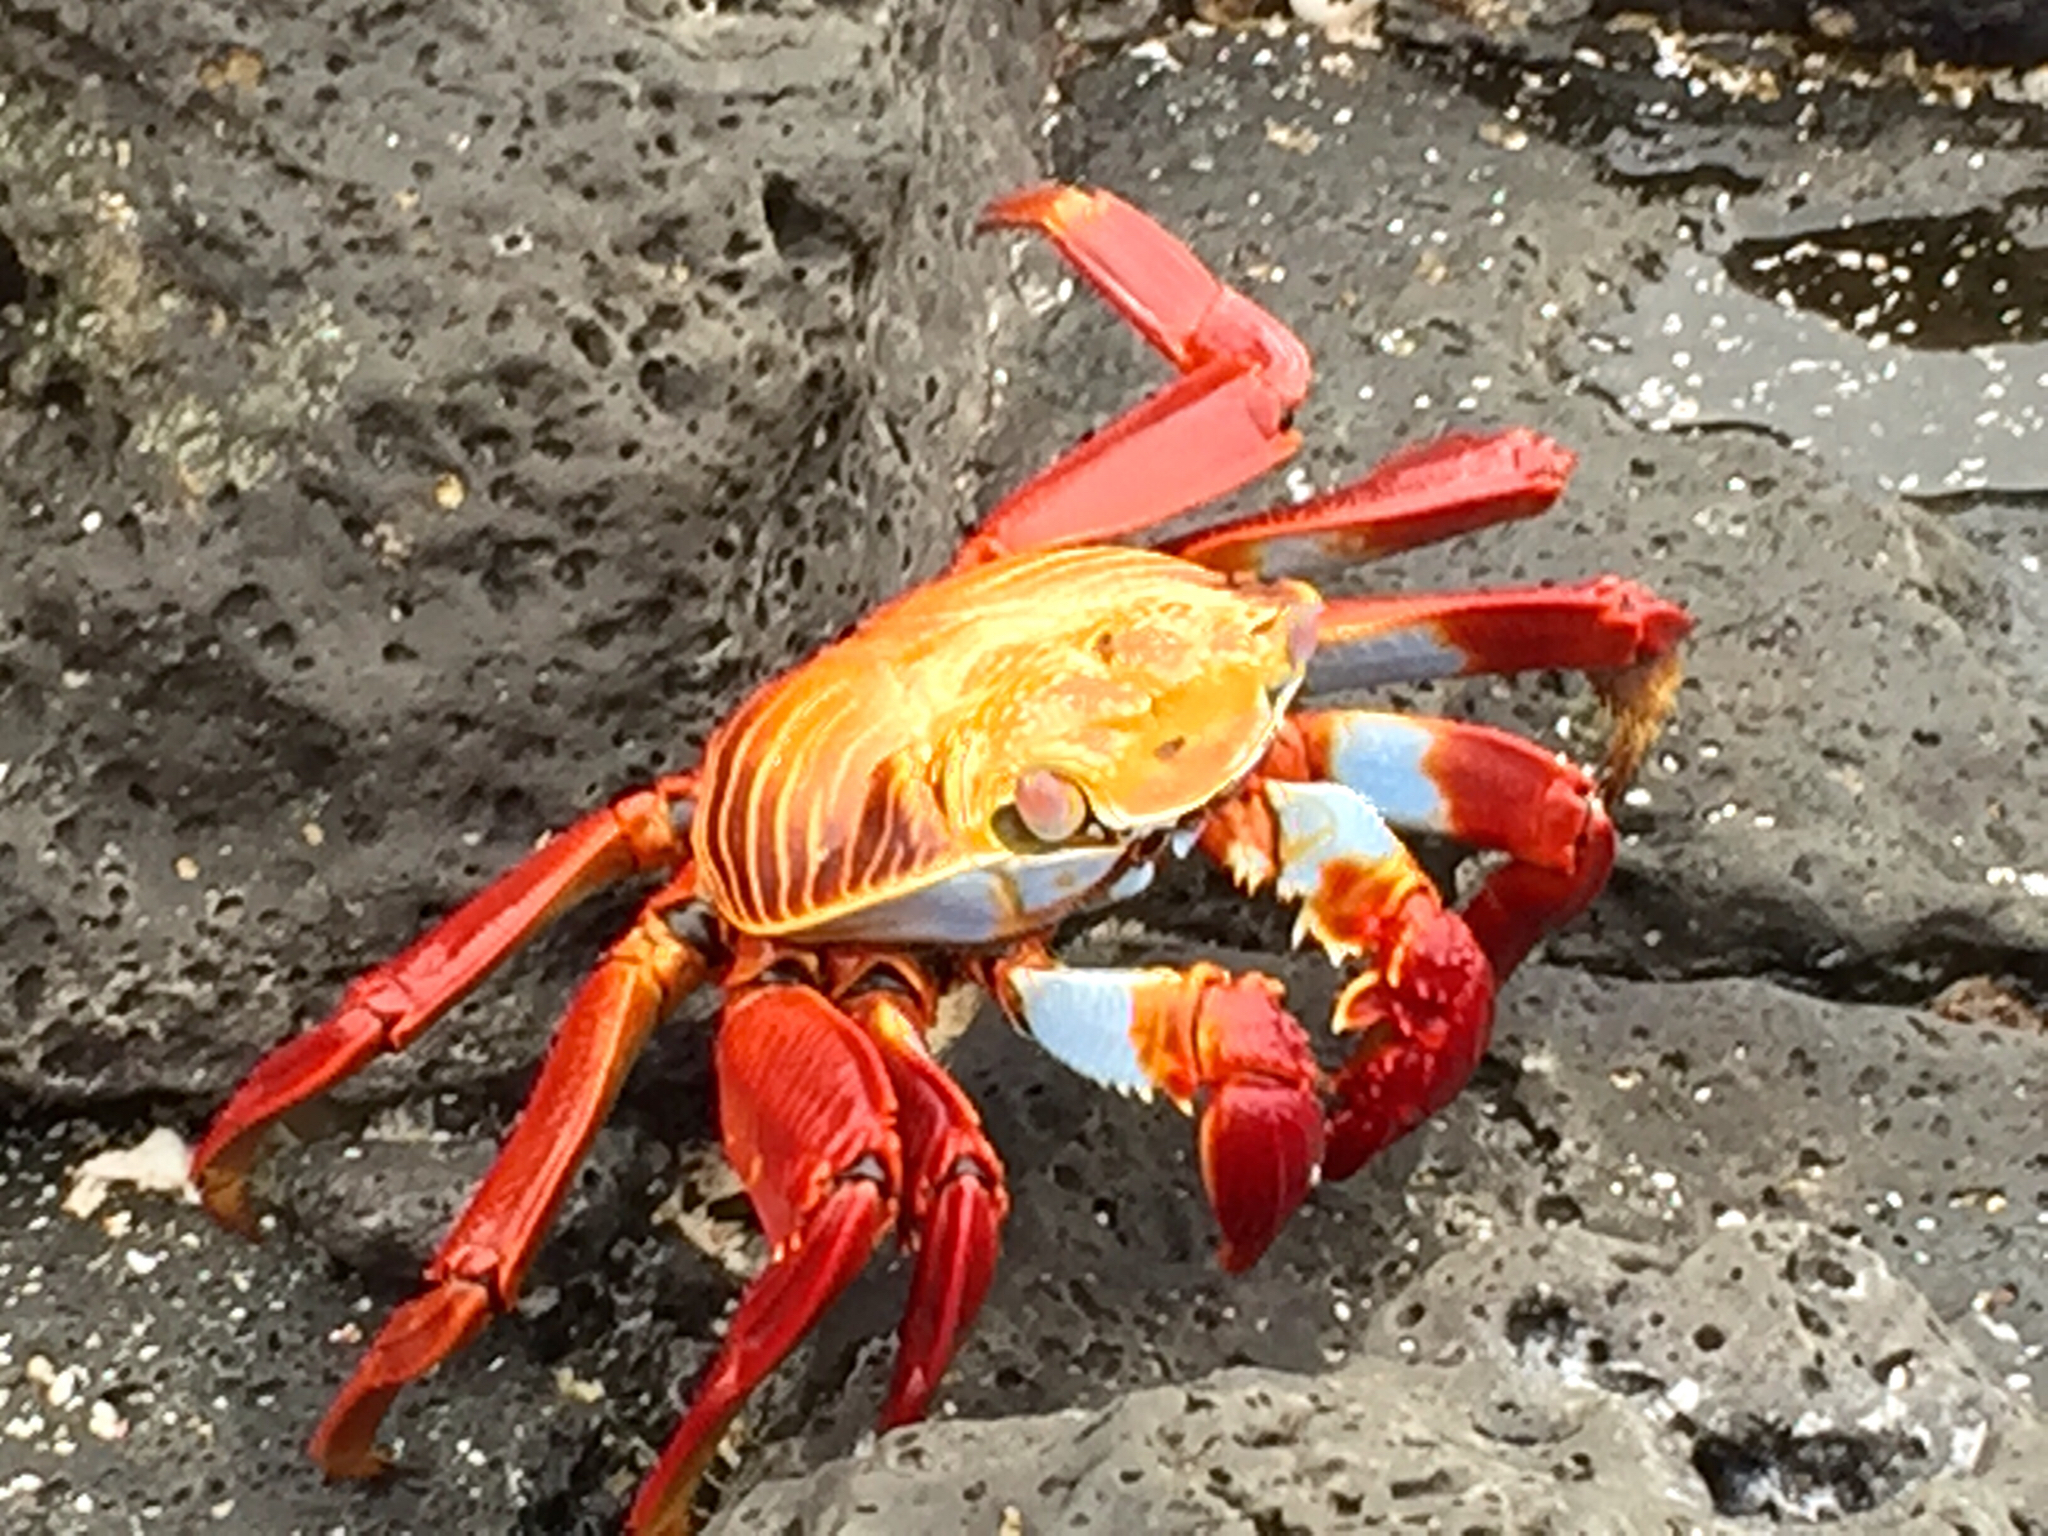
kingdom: Animalia
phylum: Arthropoda
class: Malacostraca
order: Decapoda
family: Grapsidae
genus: Grapsus
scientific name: Grapsus grapsus
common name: Sally lightfoot
